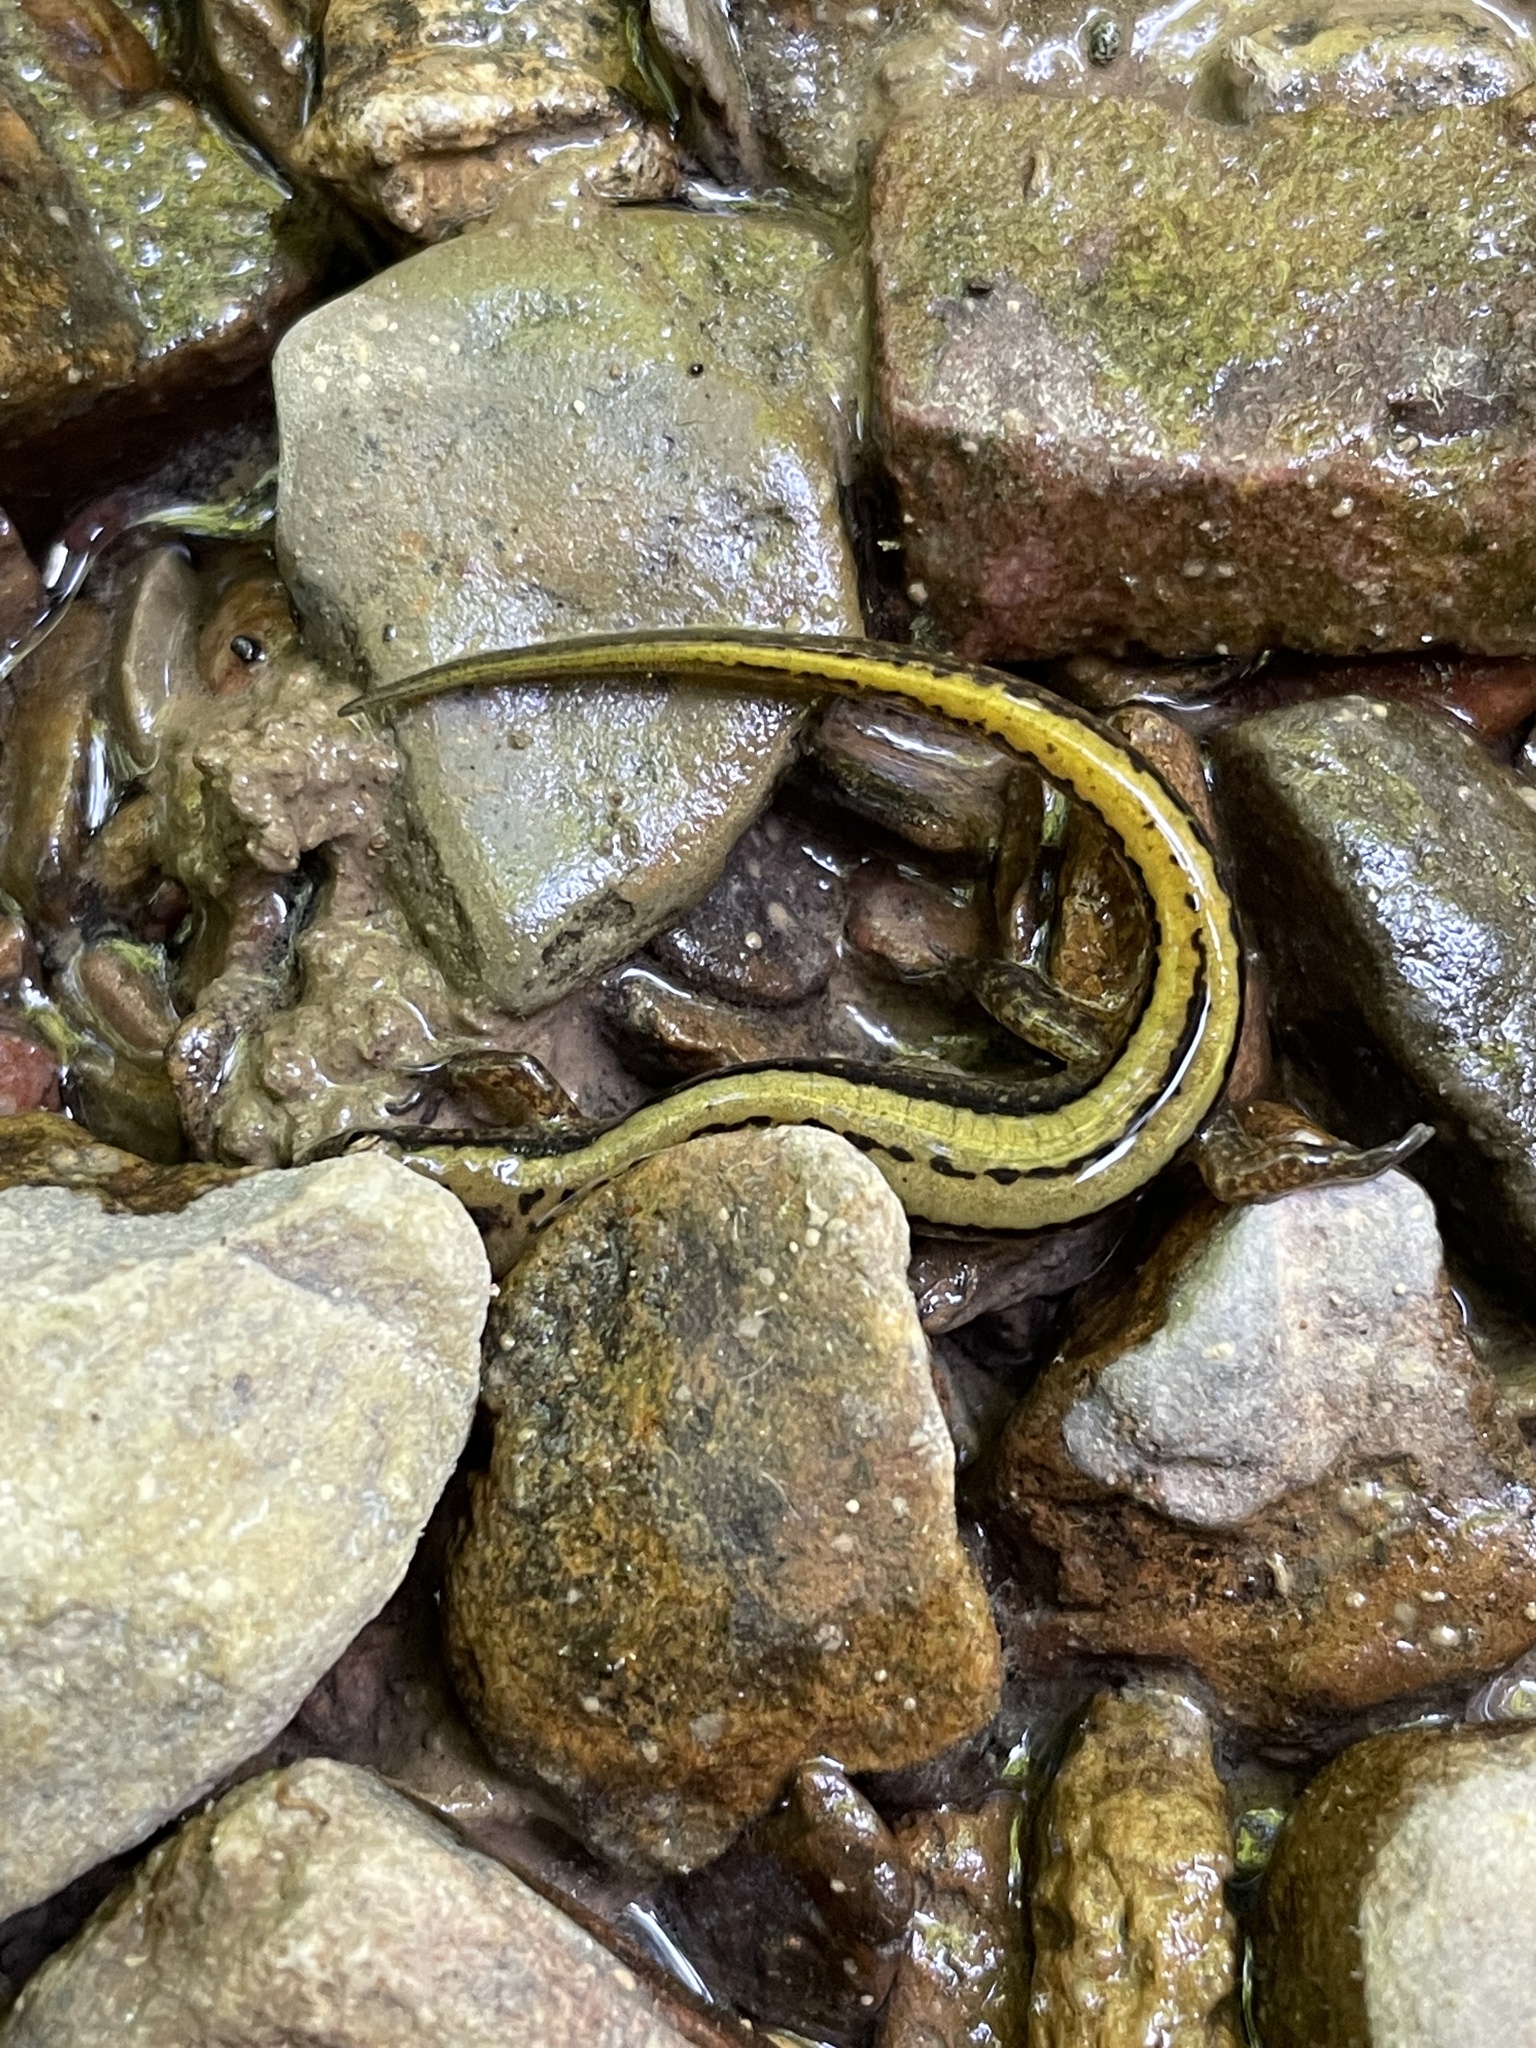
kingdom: Animalia
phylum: Chordata
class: Amphibia
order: Caudata
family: Plethodontidae
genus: Eurycea
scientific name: Eurycea cirrigera
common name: Southern two-lined salamander
